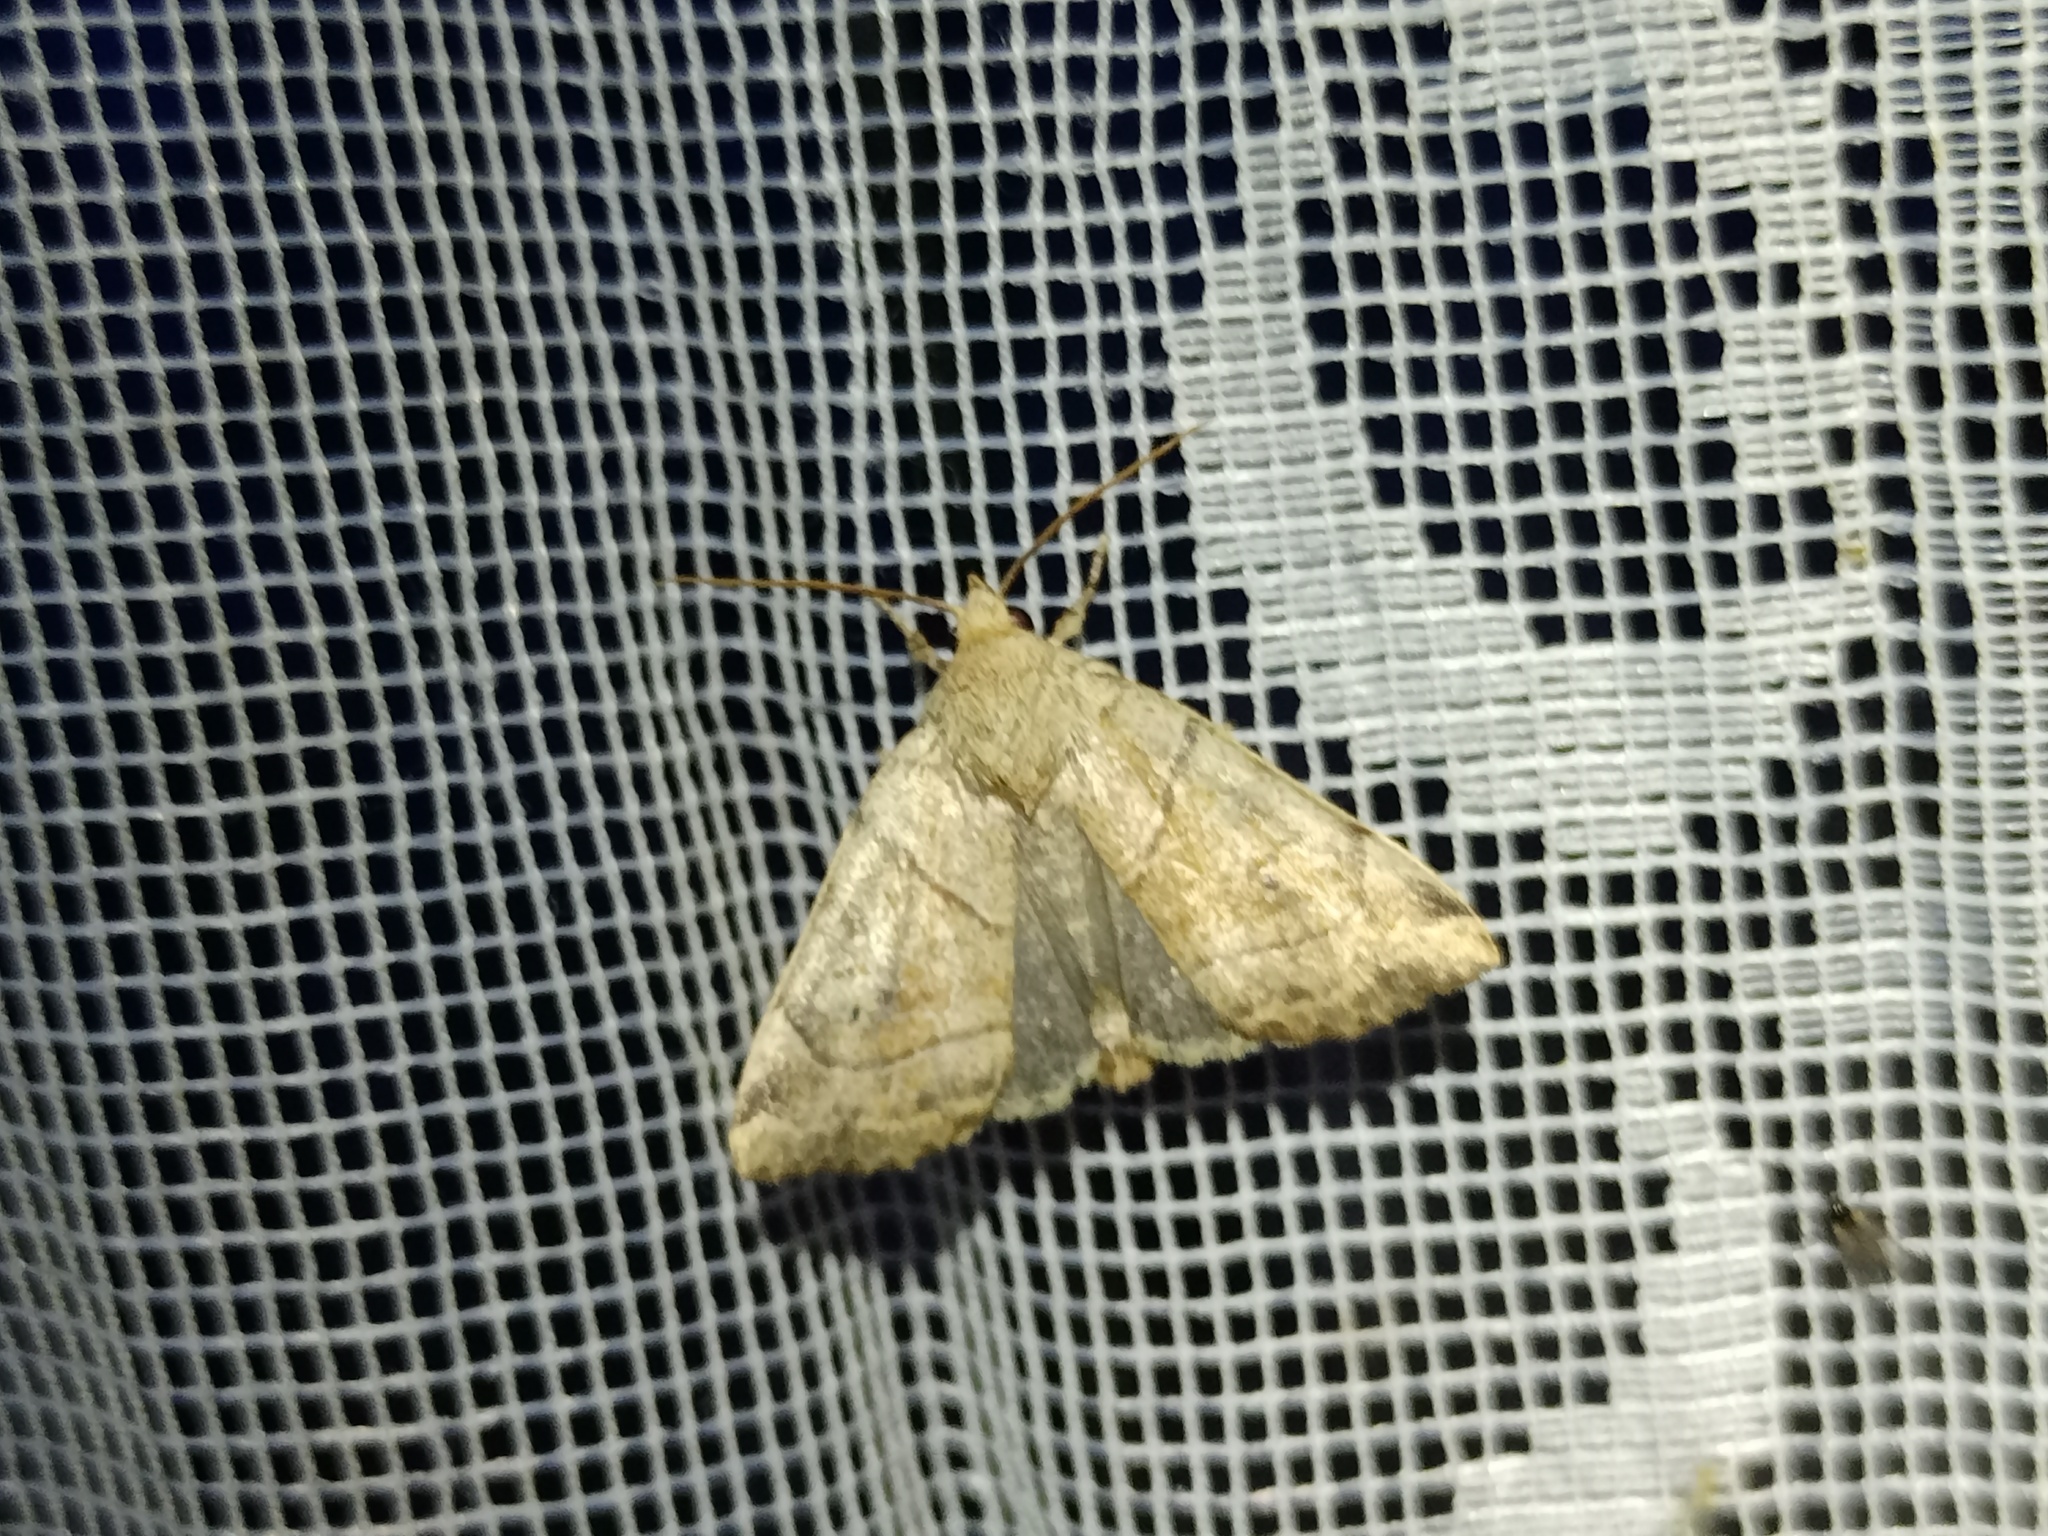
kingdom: Animalia
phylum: Arthropoda
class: Insecta
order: Lepidoptera
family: Noctuidae
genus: Cosmia
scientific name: Cosmia trapezina
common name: Dun-bar
